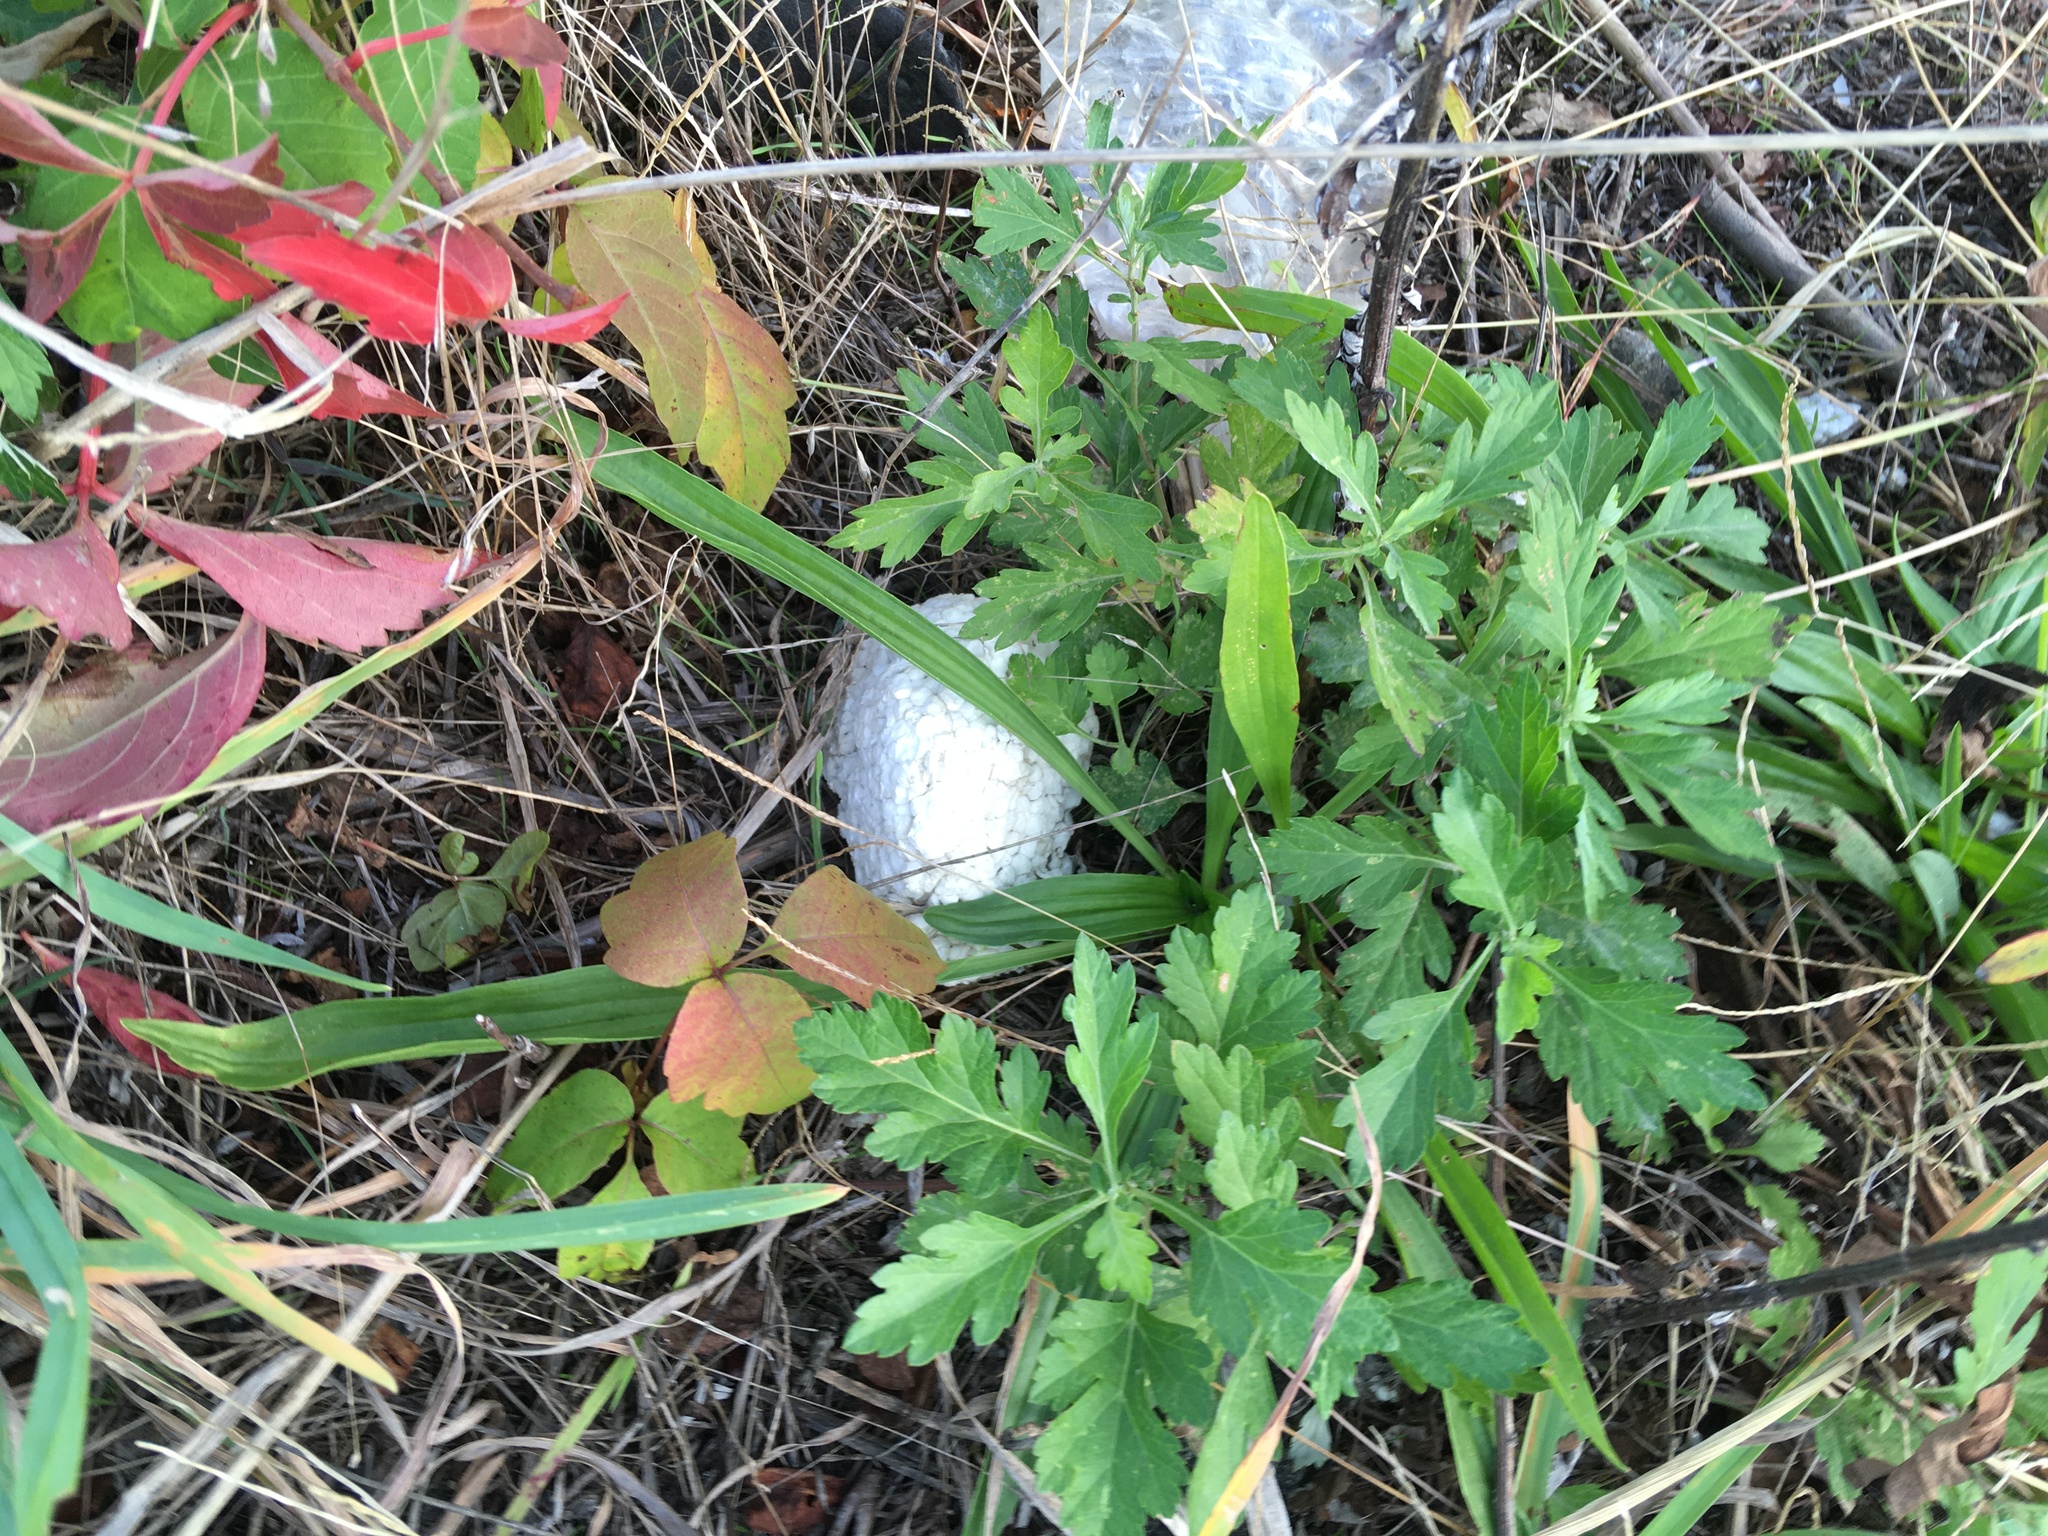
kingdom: Plantae
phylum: Tracheophyta
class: Magnoliopsida
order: Asterales
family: Asteraceae
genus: Artemisia
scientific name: Artemisia vulgaris
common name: Mugwort
